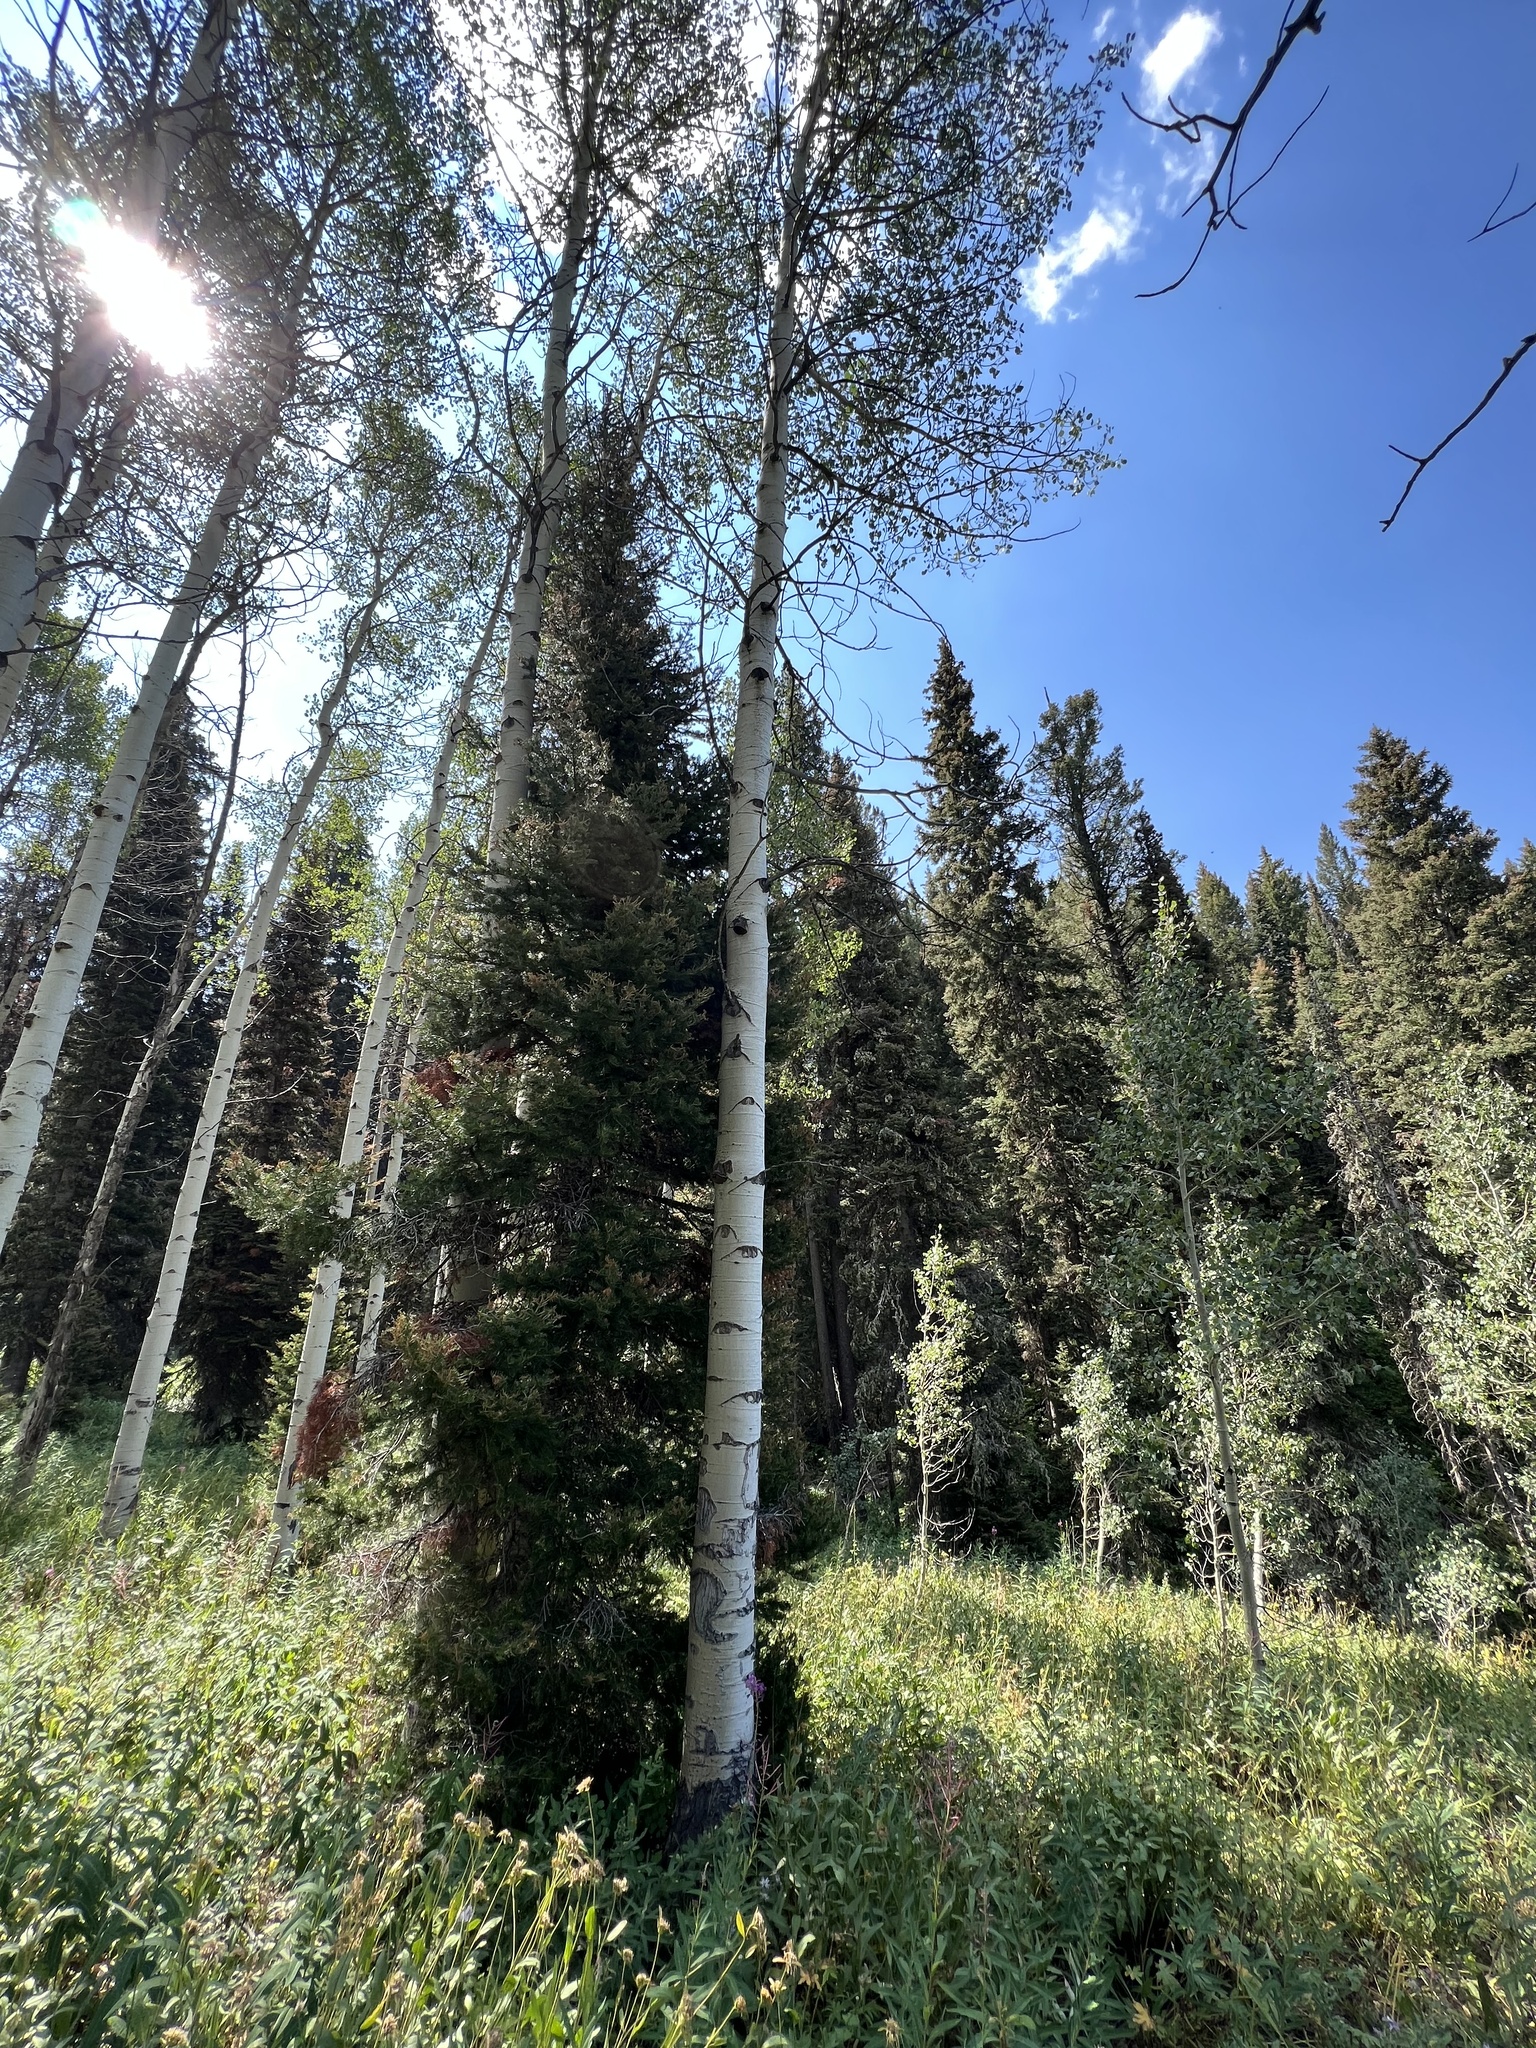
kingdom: Plantae
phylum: Tracheophyta
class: Magnoliopsida
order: Malpighiales
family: Salicaceae
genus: Populus
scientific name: Populus tremuloides
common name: Quaking aspen
